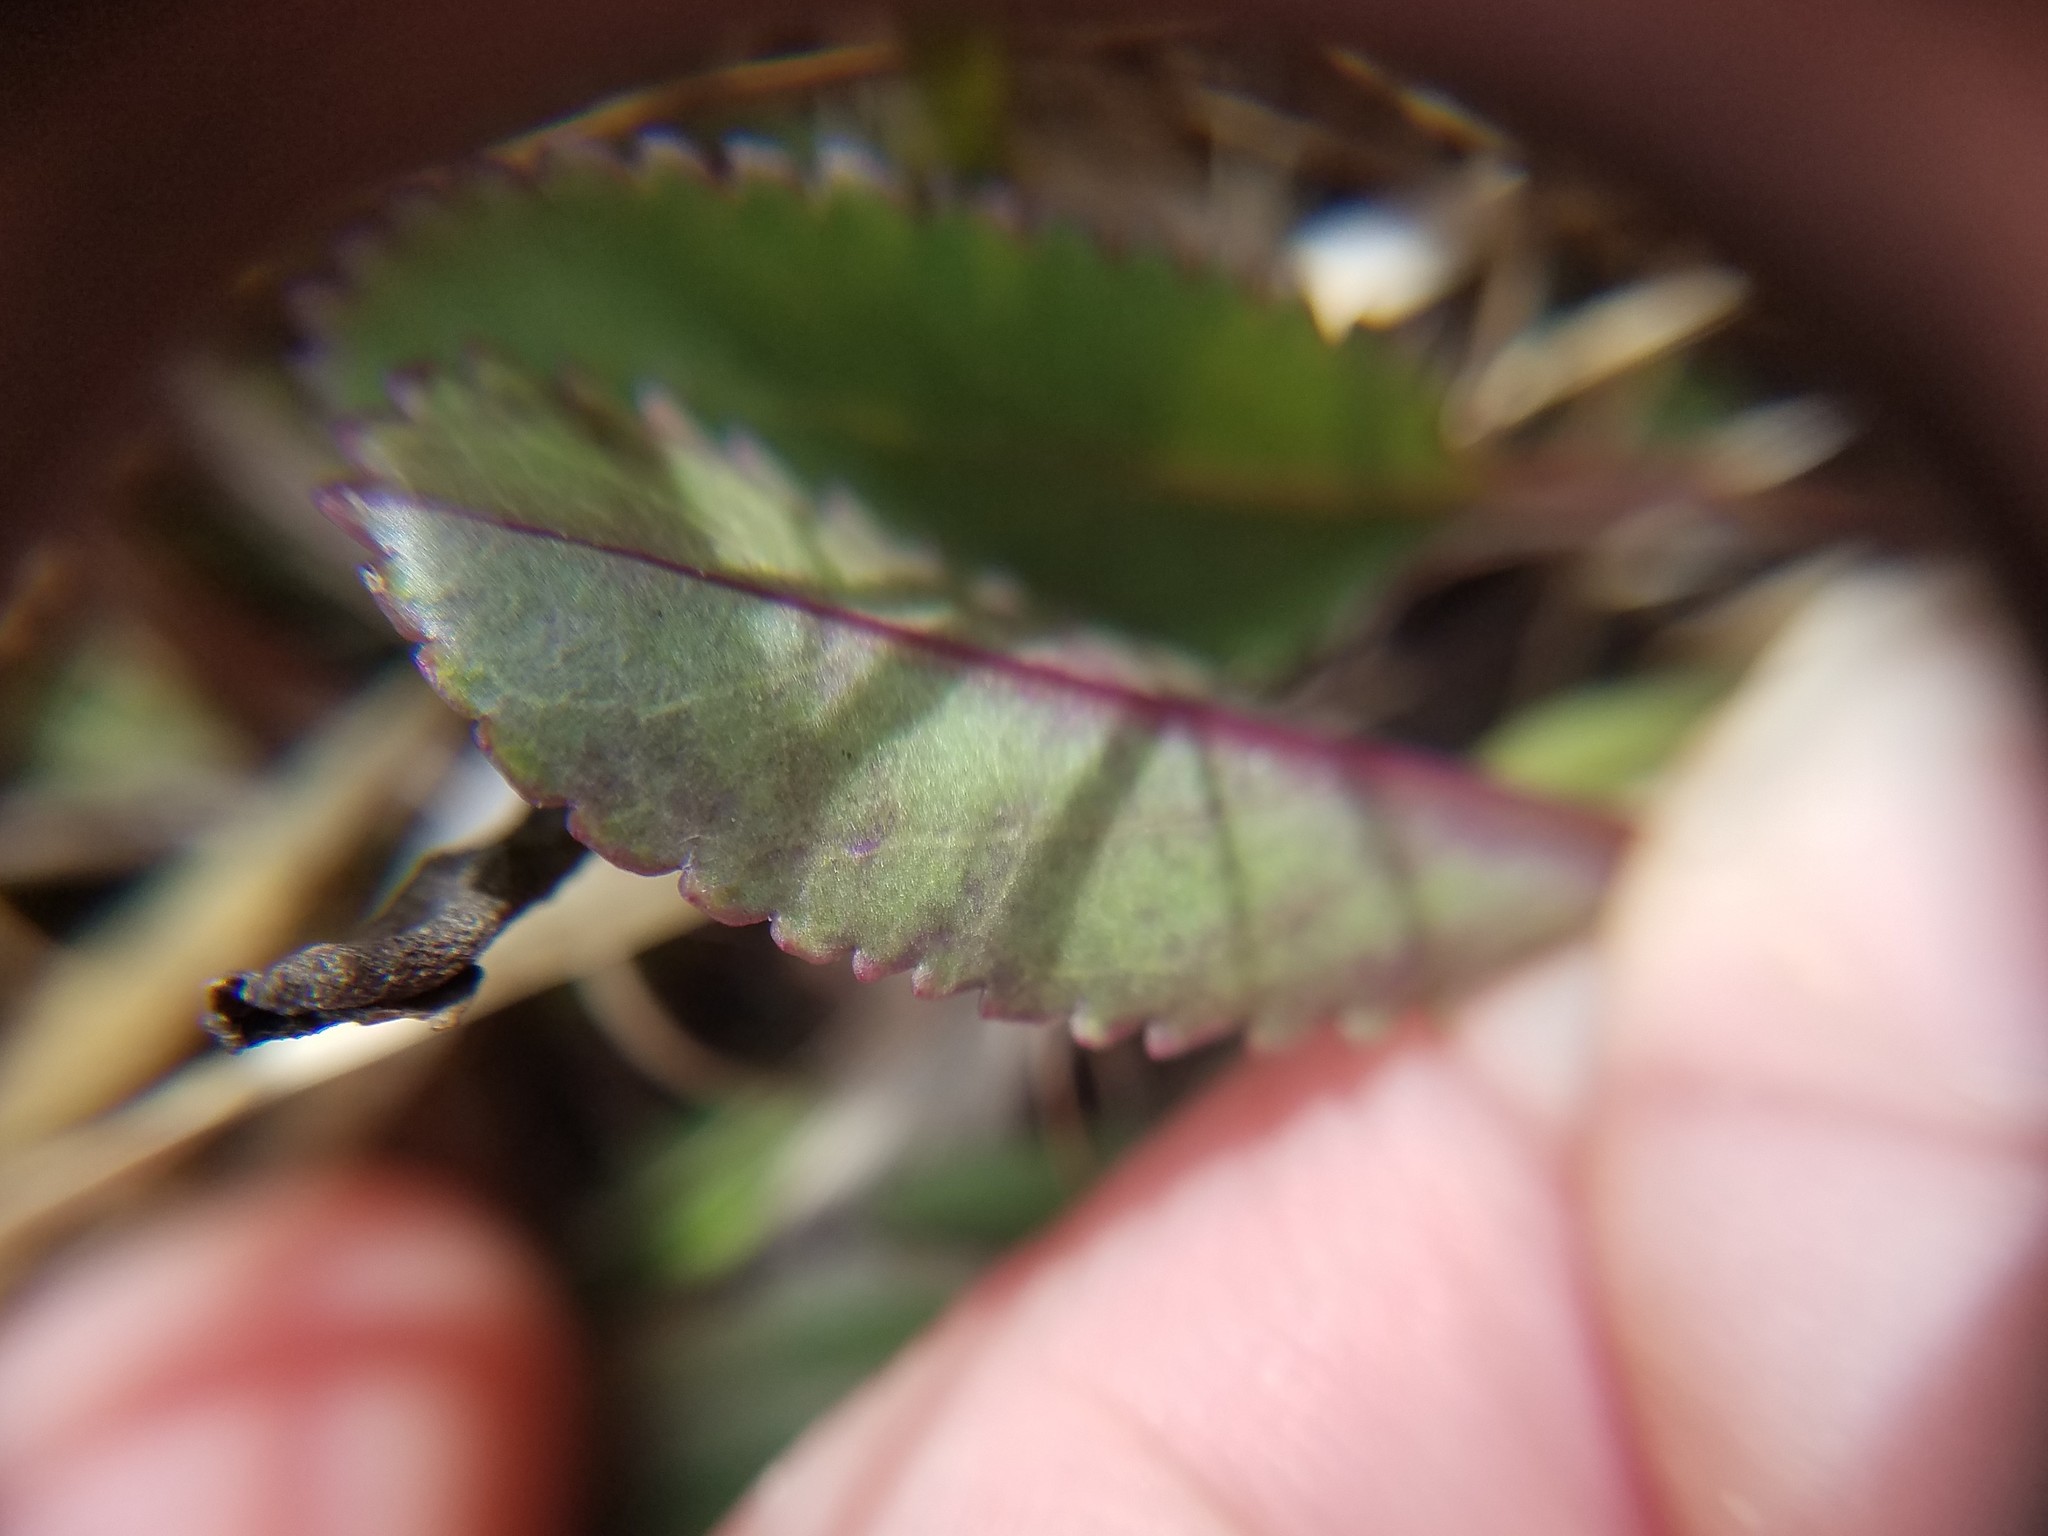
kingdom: Plantae
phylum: Tracheophyta
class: Magnoliopsida
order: Asterales
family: Asteraceae
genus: Packera
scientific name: Packera anonyma
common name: Small ragwort
